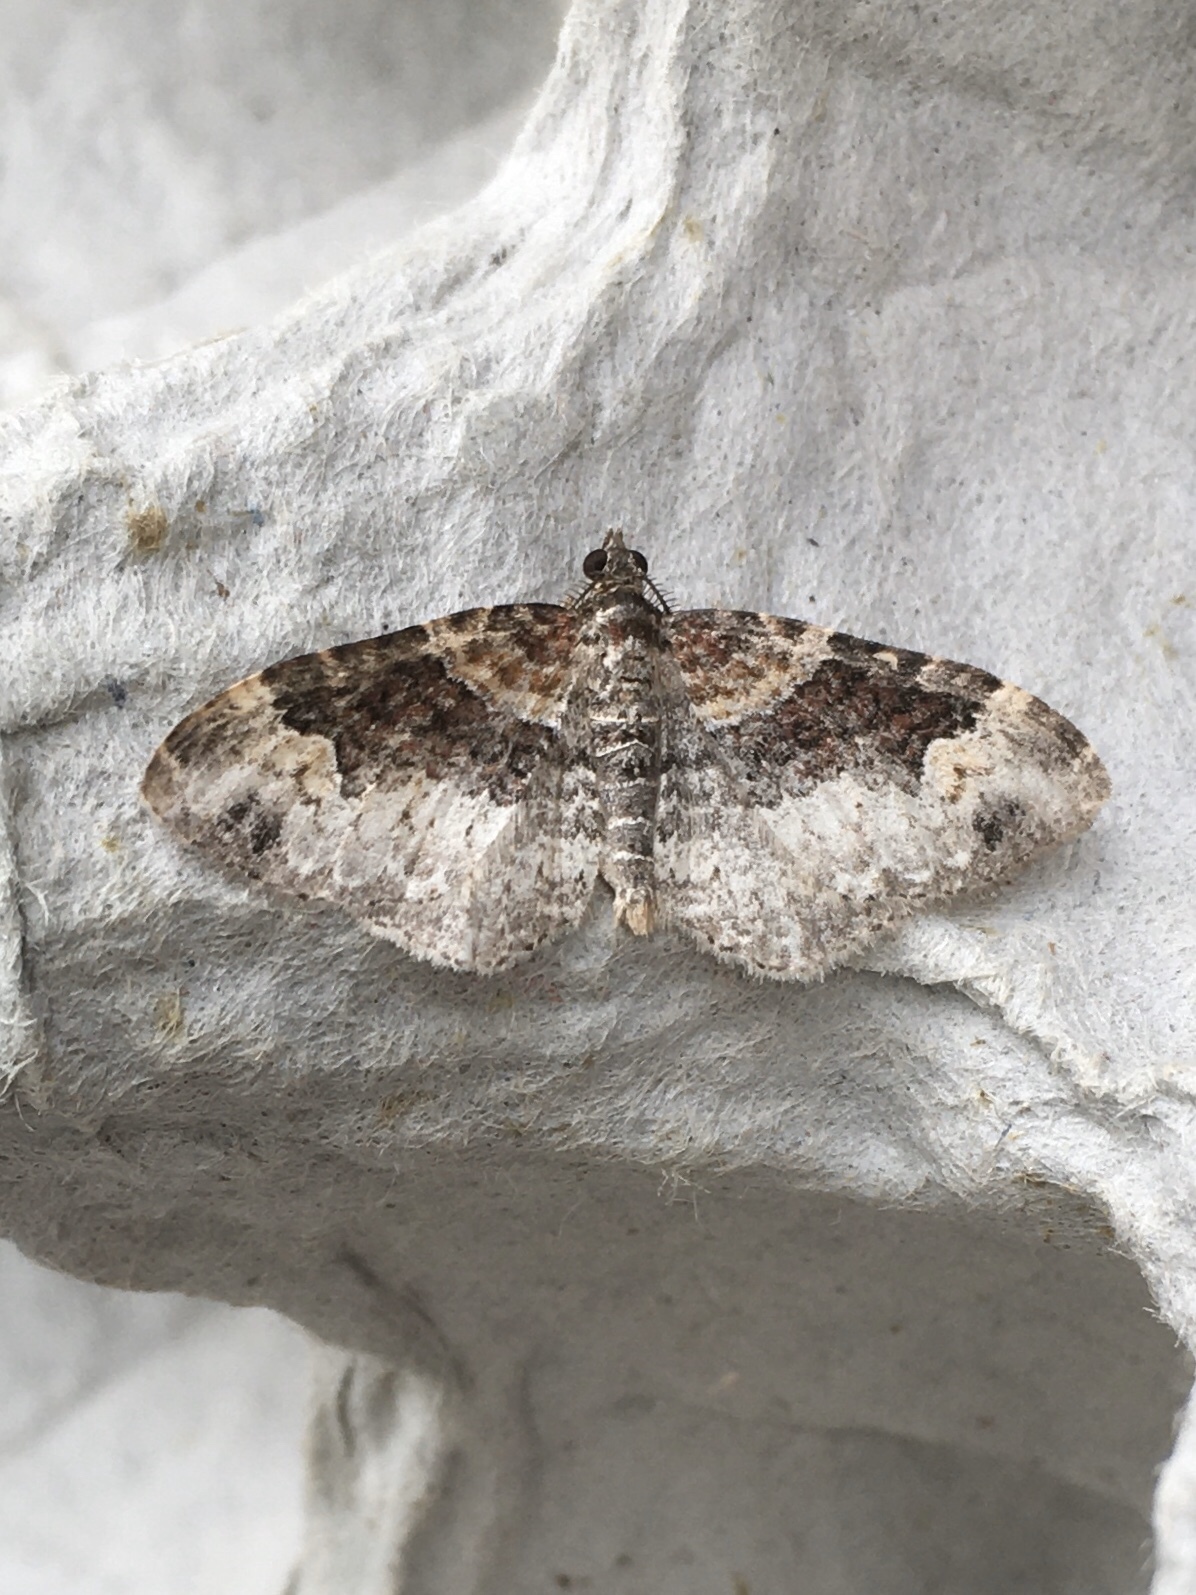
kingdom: Animalia
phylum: Arthropoda
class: Insecta
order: Lepidoptera
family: Geometridae
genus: Xanthorhoe
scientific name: Xanthorhoe ferrugata
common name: Dark-barred twin-spot carpet
